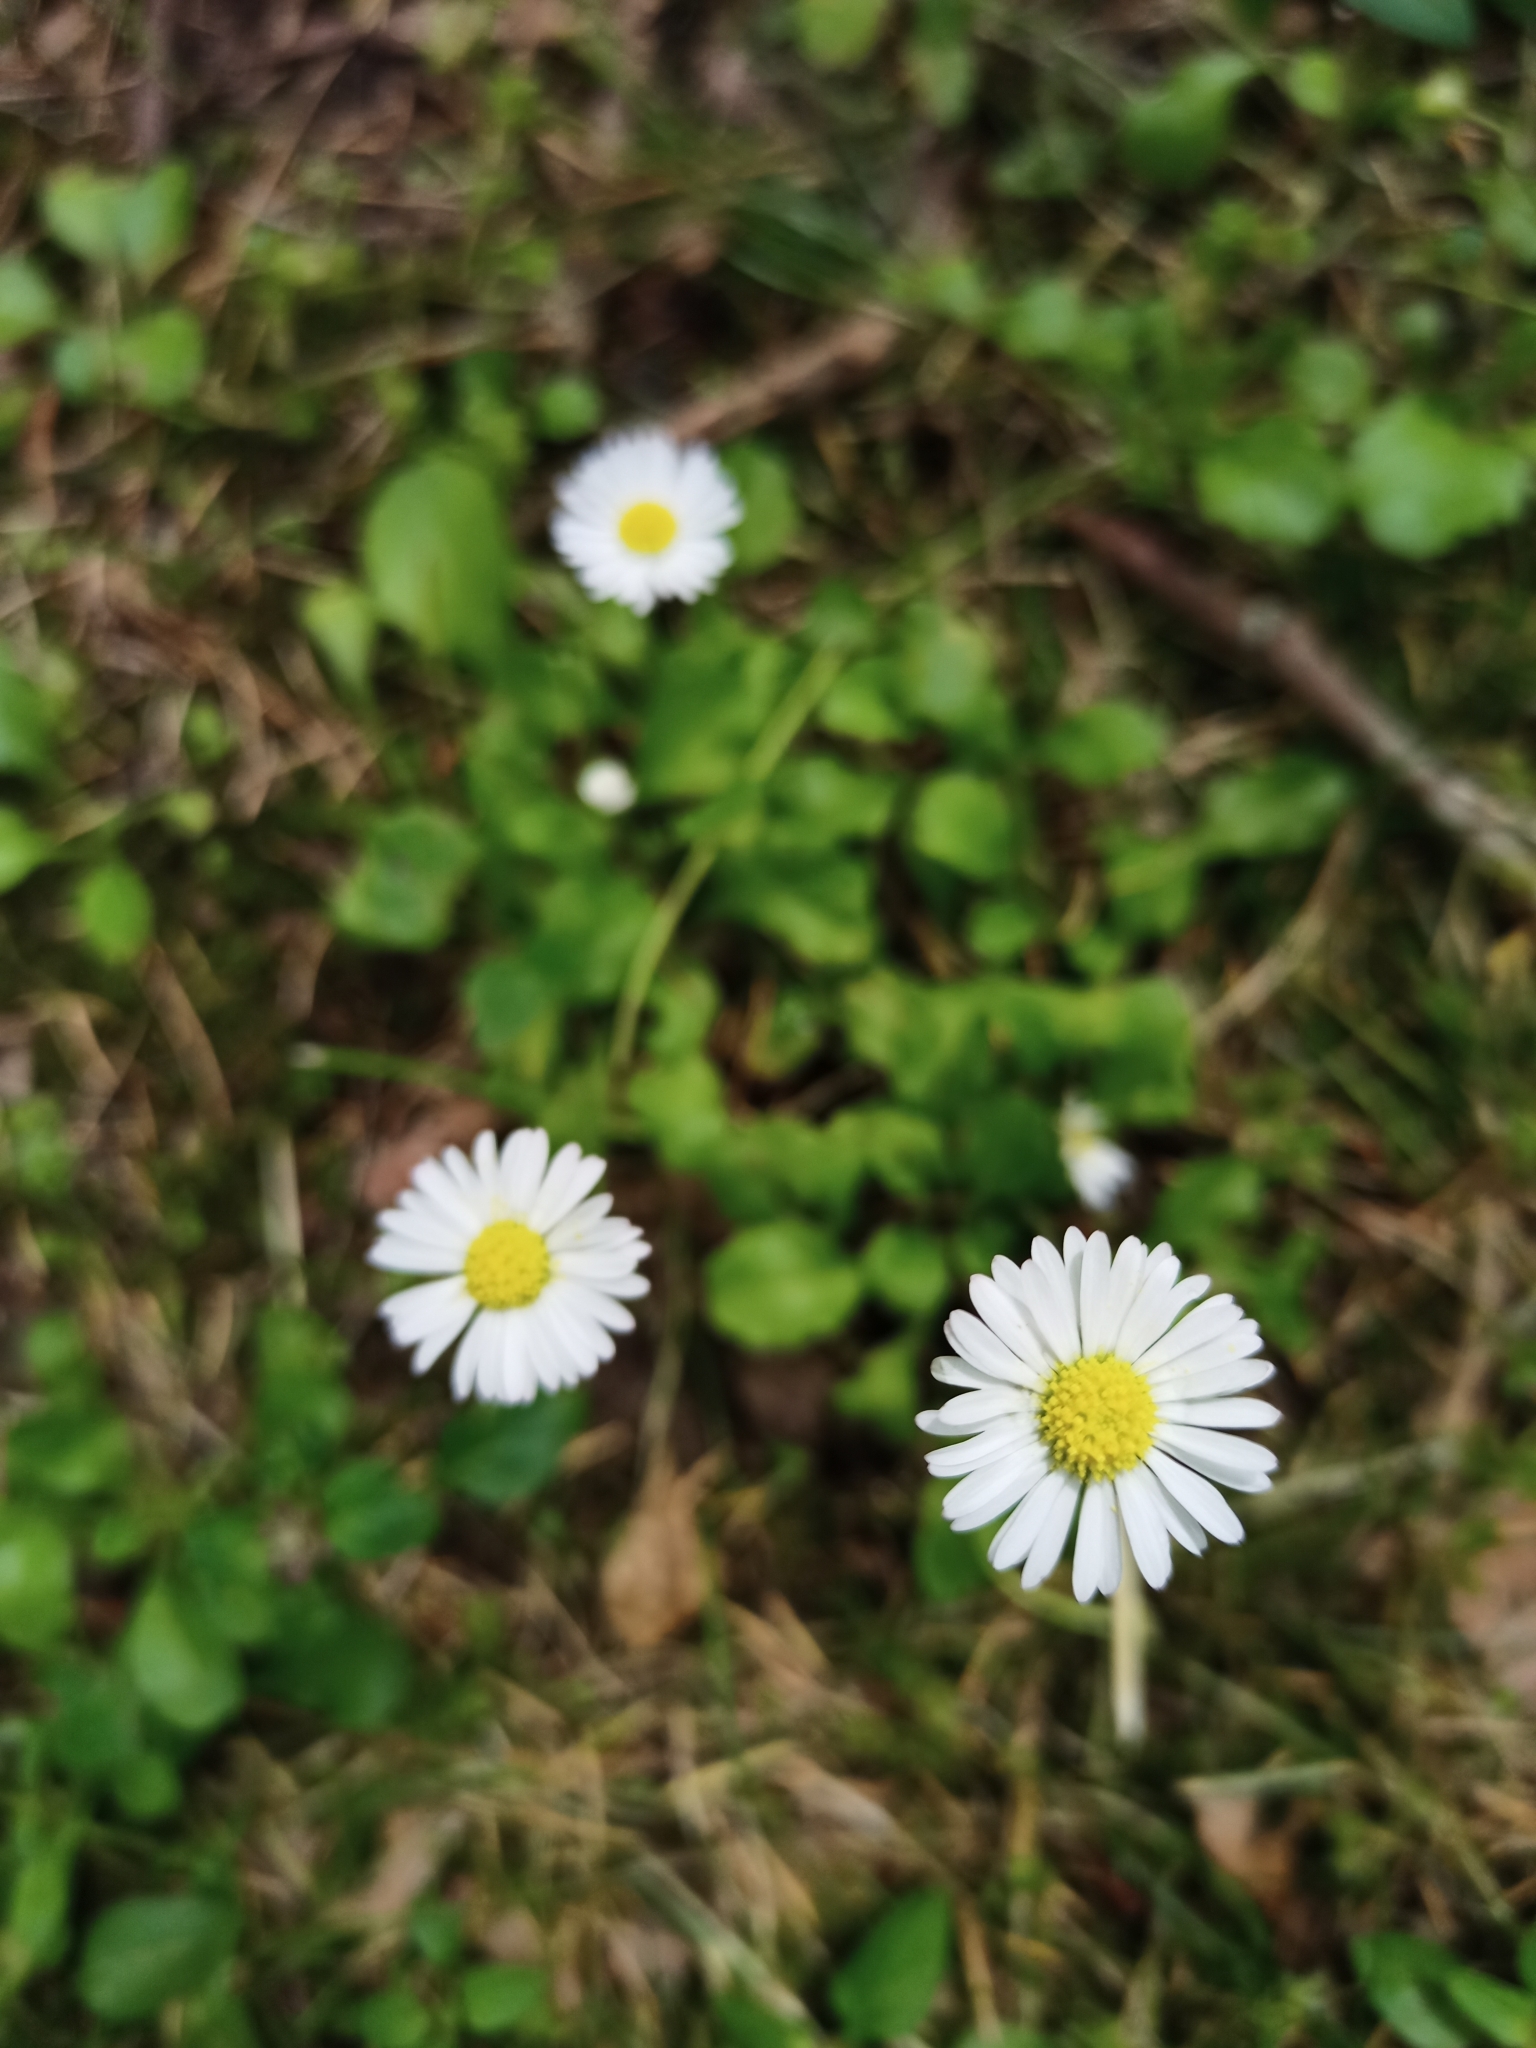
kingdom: Plantae
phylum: Tracheophyta
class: Magnoliopsida
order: Asterales
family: Asteraceae
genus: Bellis
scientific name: Bellis perennis
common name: Lawndaisy
